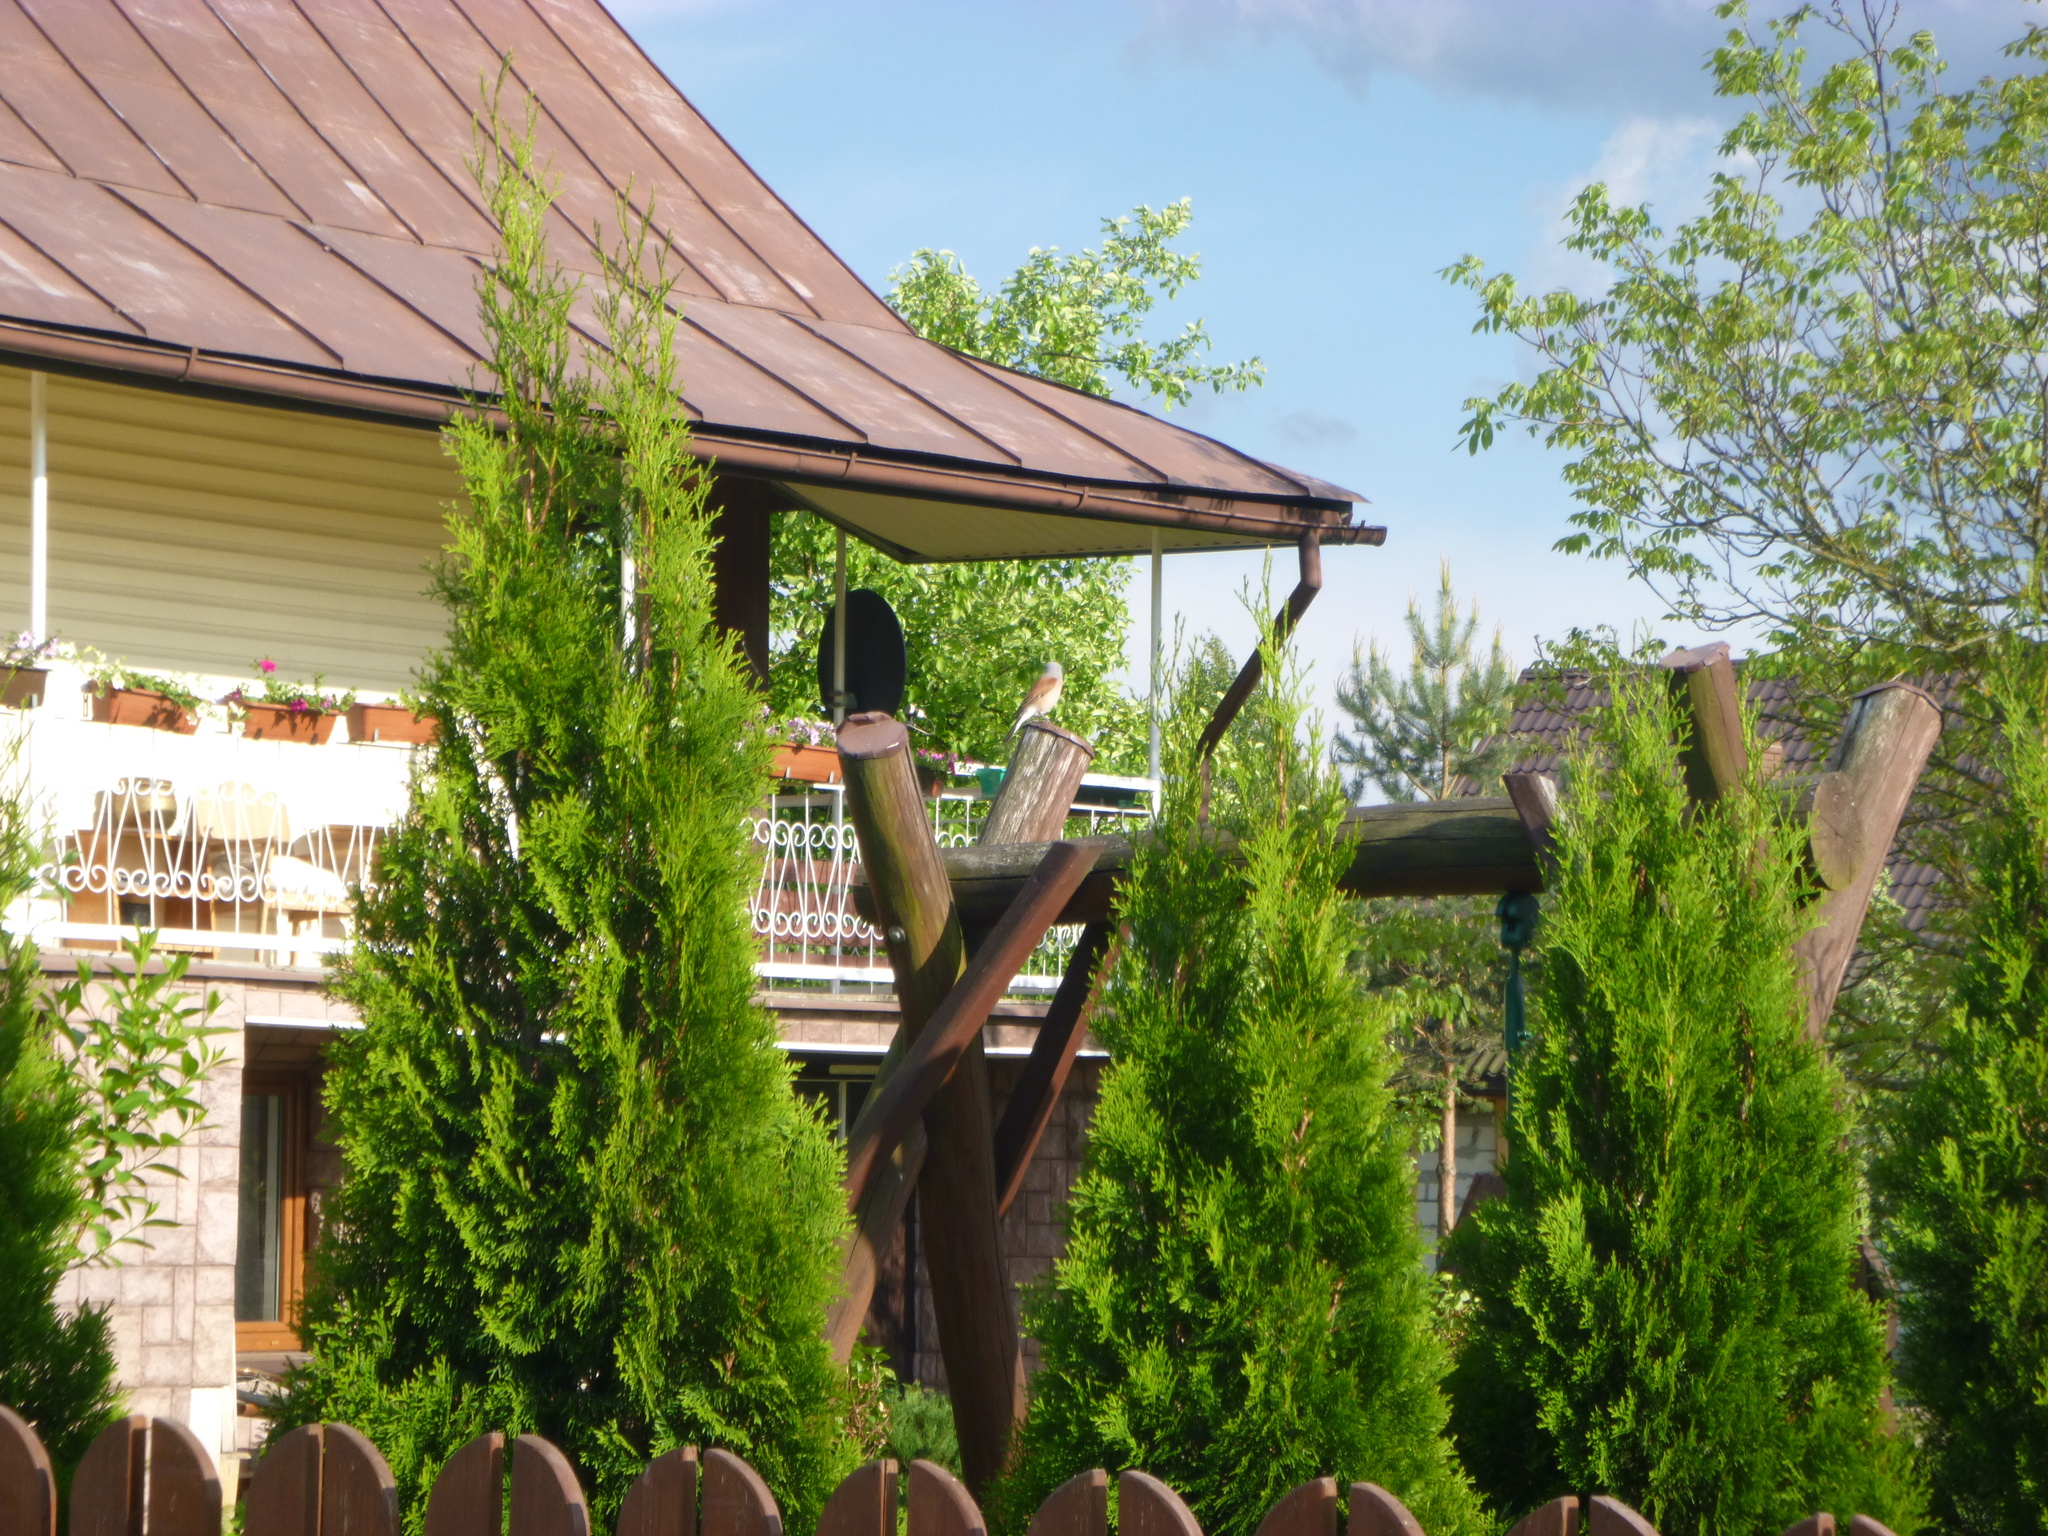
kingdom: Animalia
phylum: Chordata
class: Aves
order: Passeriformes
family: Laniidae
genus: Lanius
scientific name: Lanius collurio
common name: Red-backed shrike
